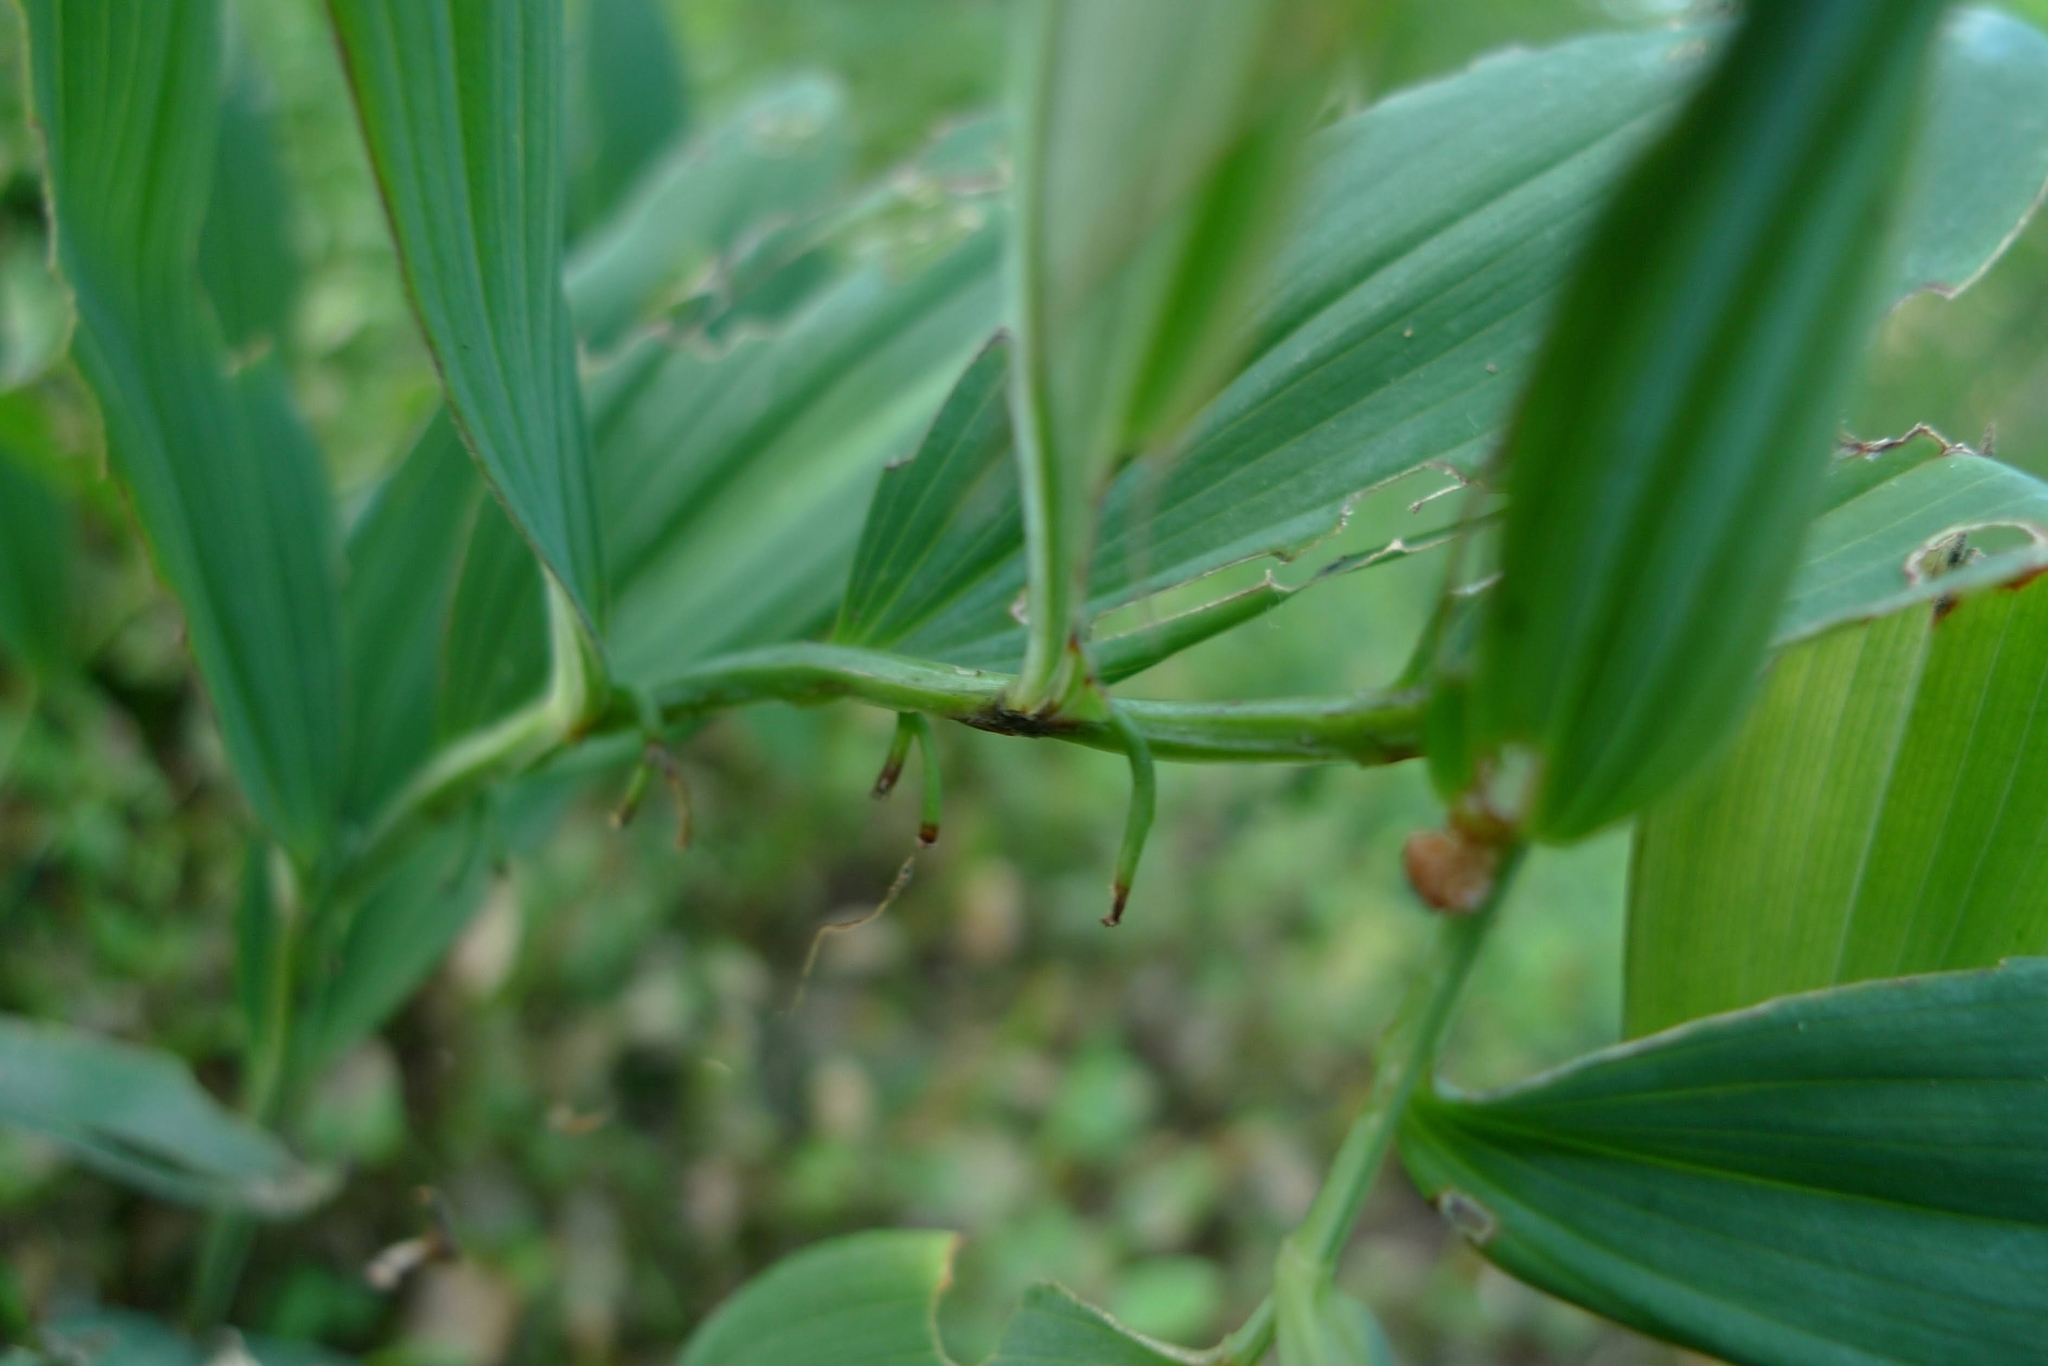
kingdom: Plantae
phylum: Tracheophyta
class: Liliopsida
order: Asparagales
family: Asparagaceae
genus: Polygonatum
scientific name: Polygonatum multiflorum
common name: Solomon's-seal
